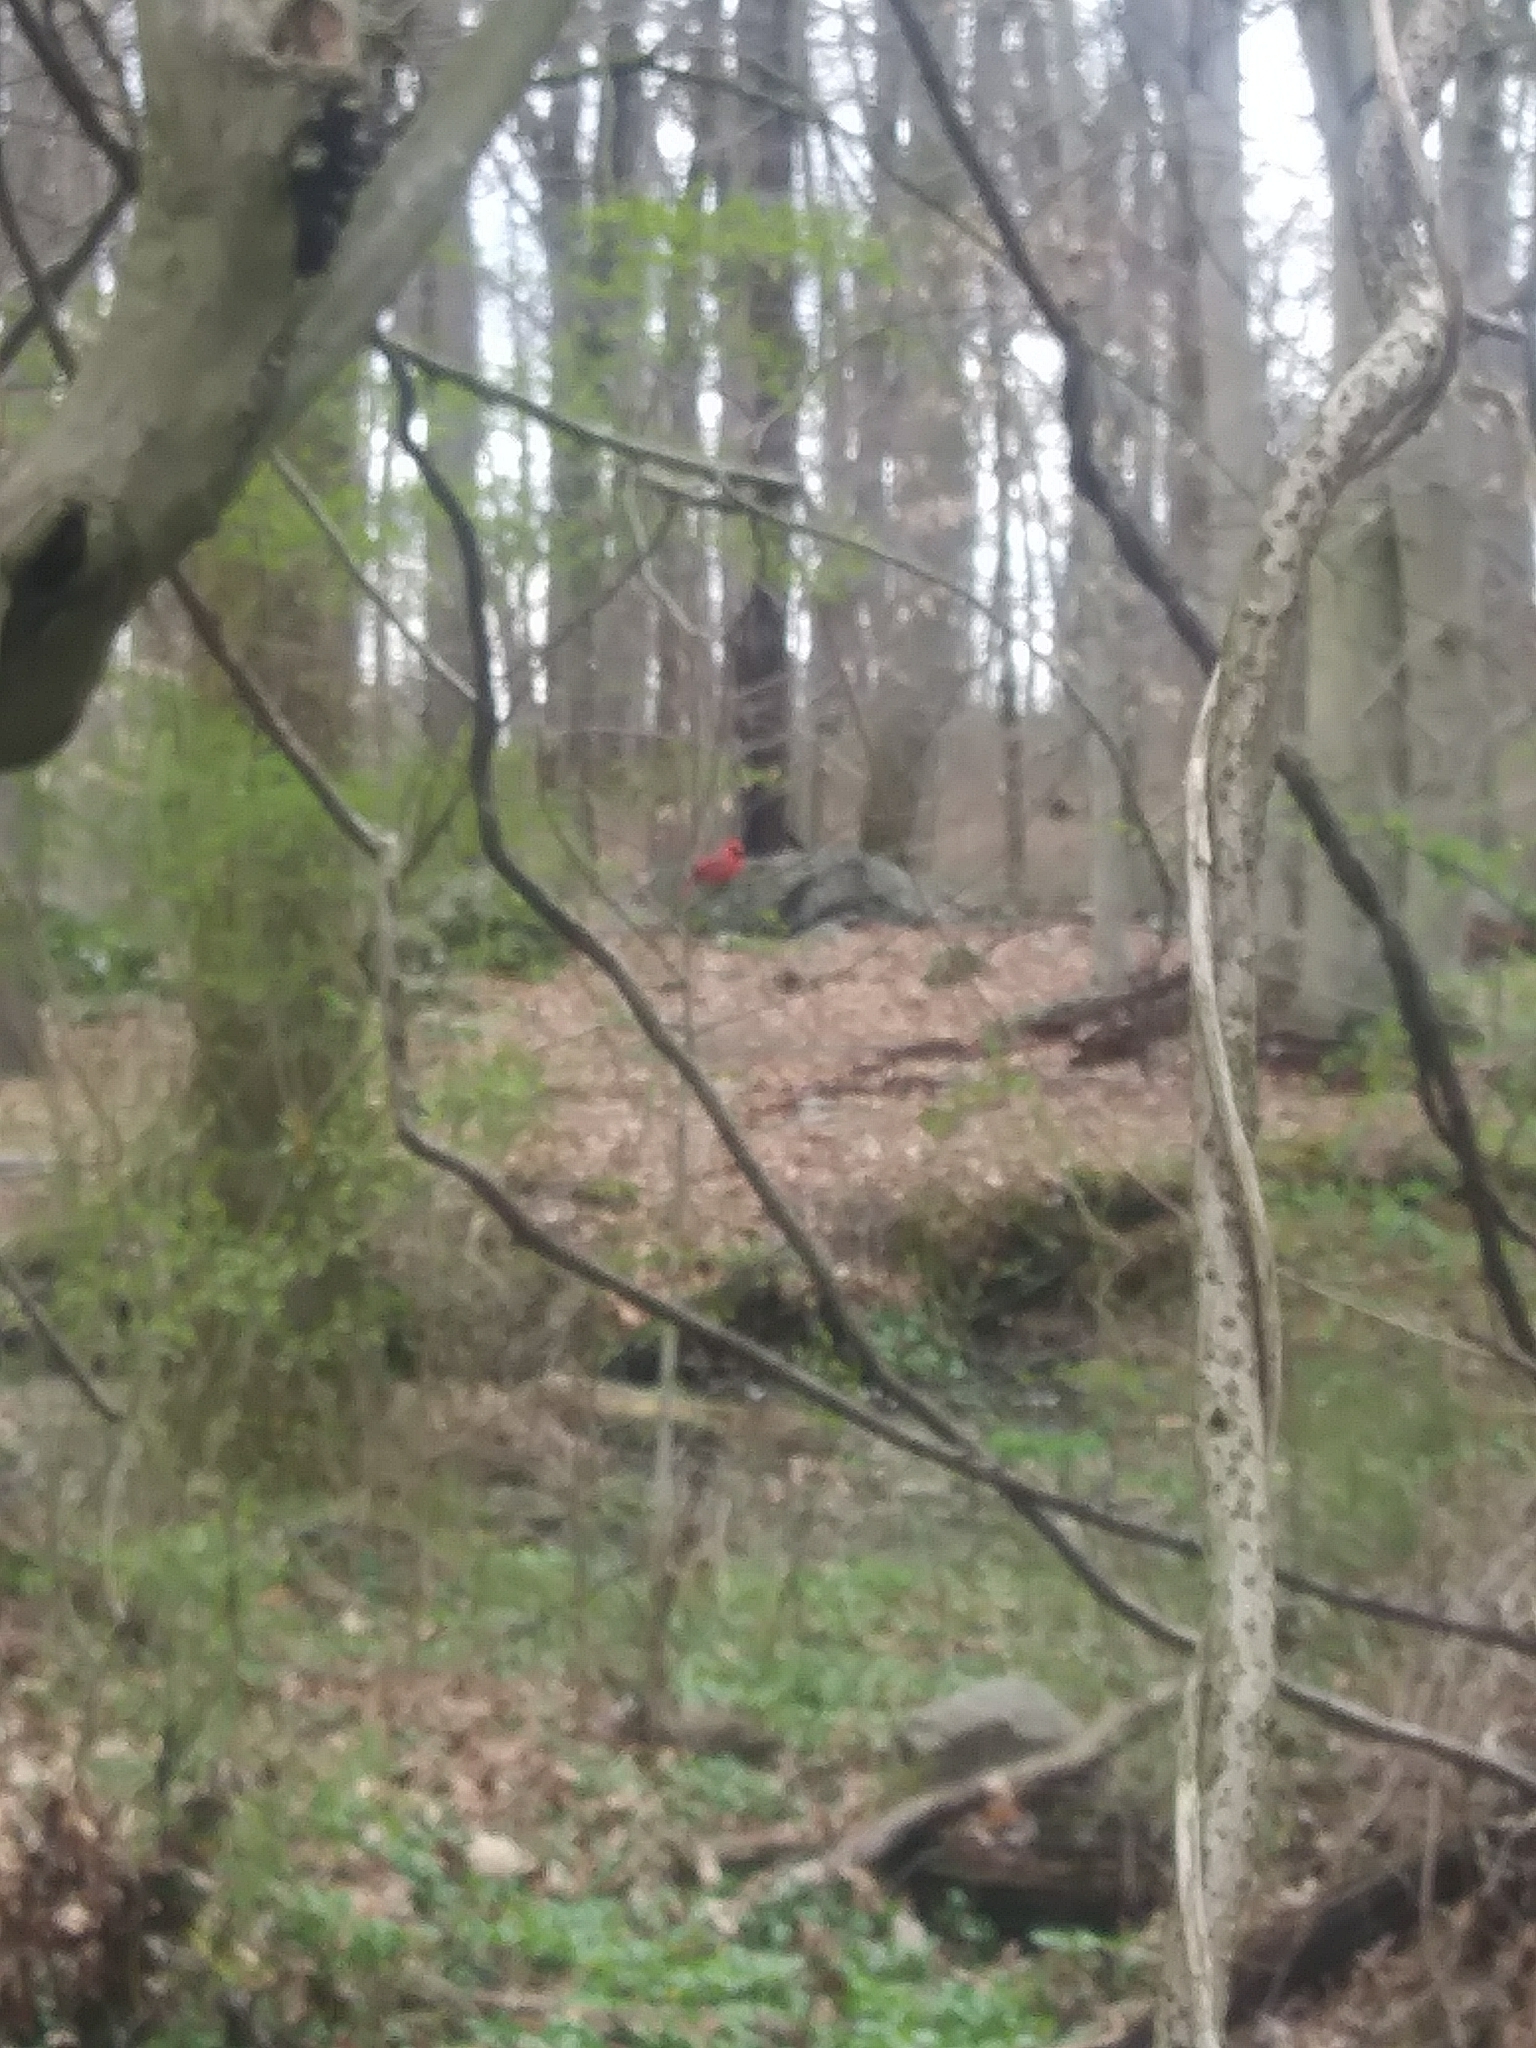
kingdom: Animalia
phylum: Chordata
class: Aves
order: Passeriformes
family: Cardinalidae
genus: Cardinalis
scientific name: Cardinalis cardinalis
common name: Northern cardinal
